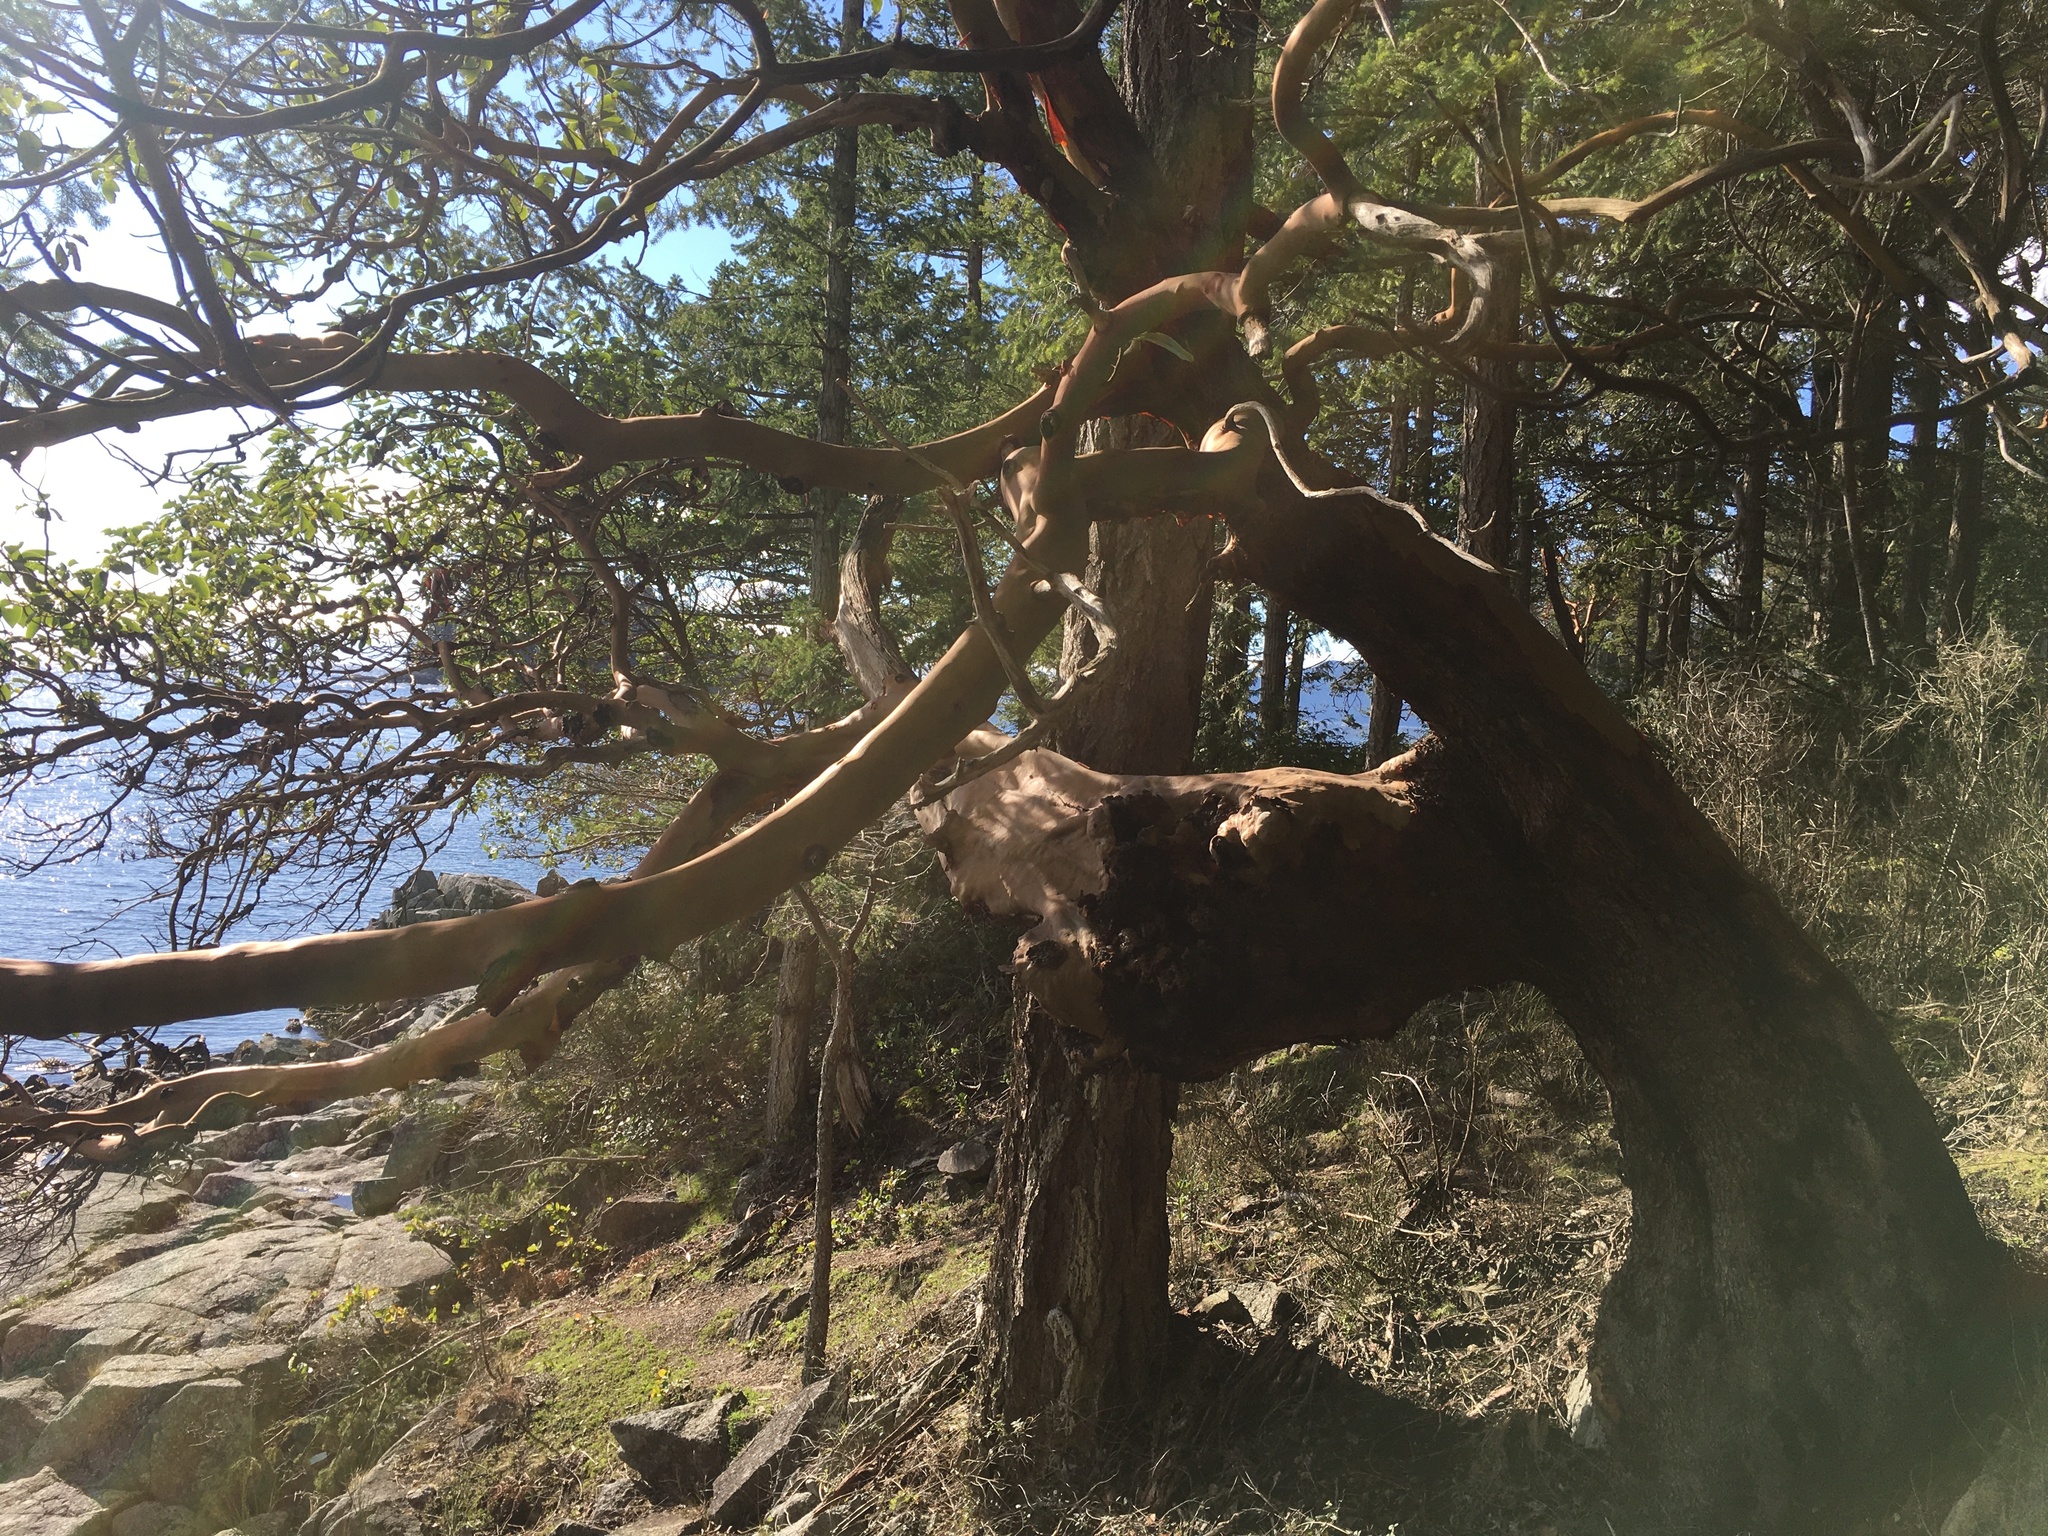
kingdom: Plantae
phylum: Tracheophyta
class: Magnoliopsida
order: Ericales
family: Ericaceae
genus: Arbutus
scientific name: Arbutus menziesii
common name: Pacific madrone
